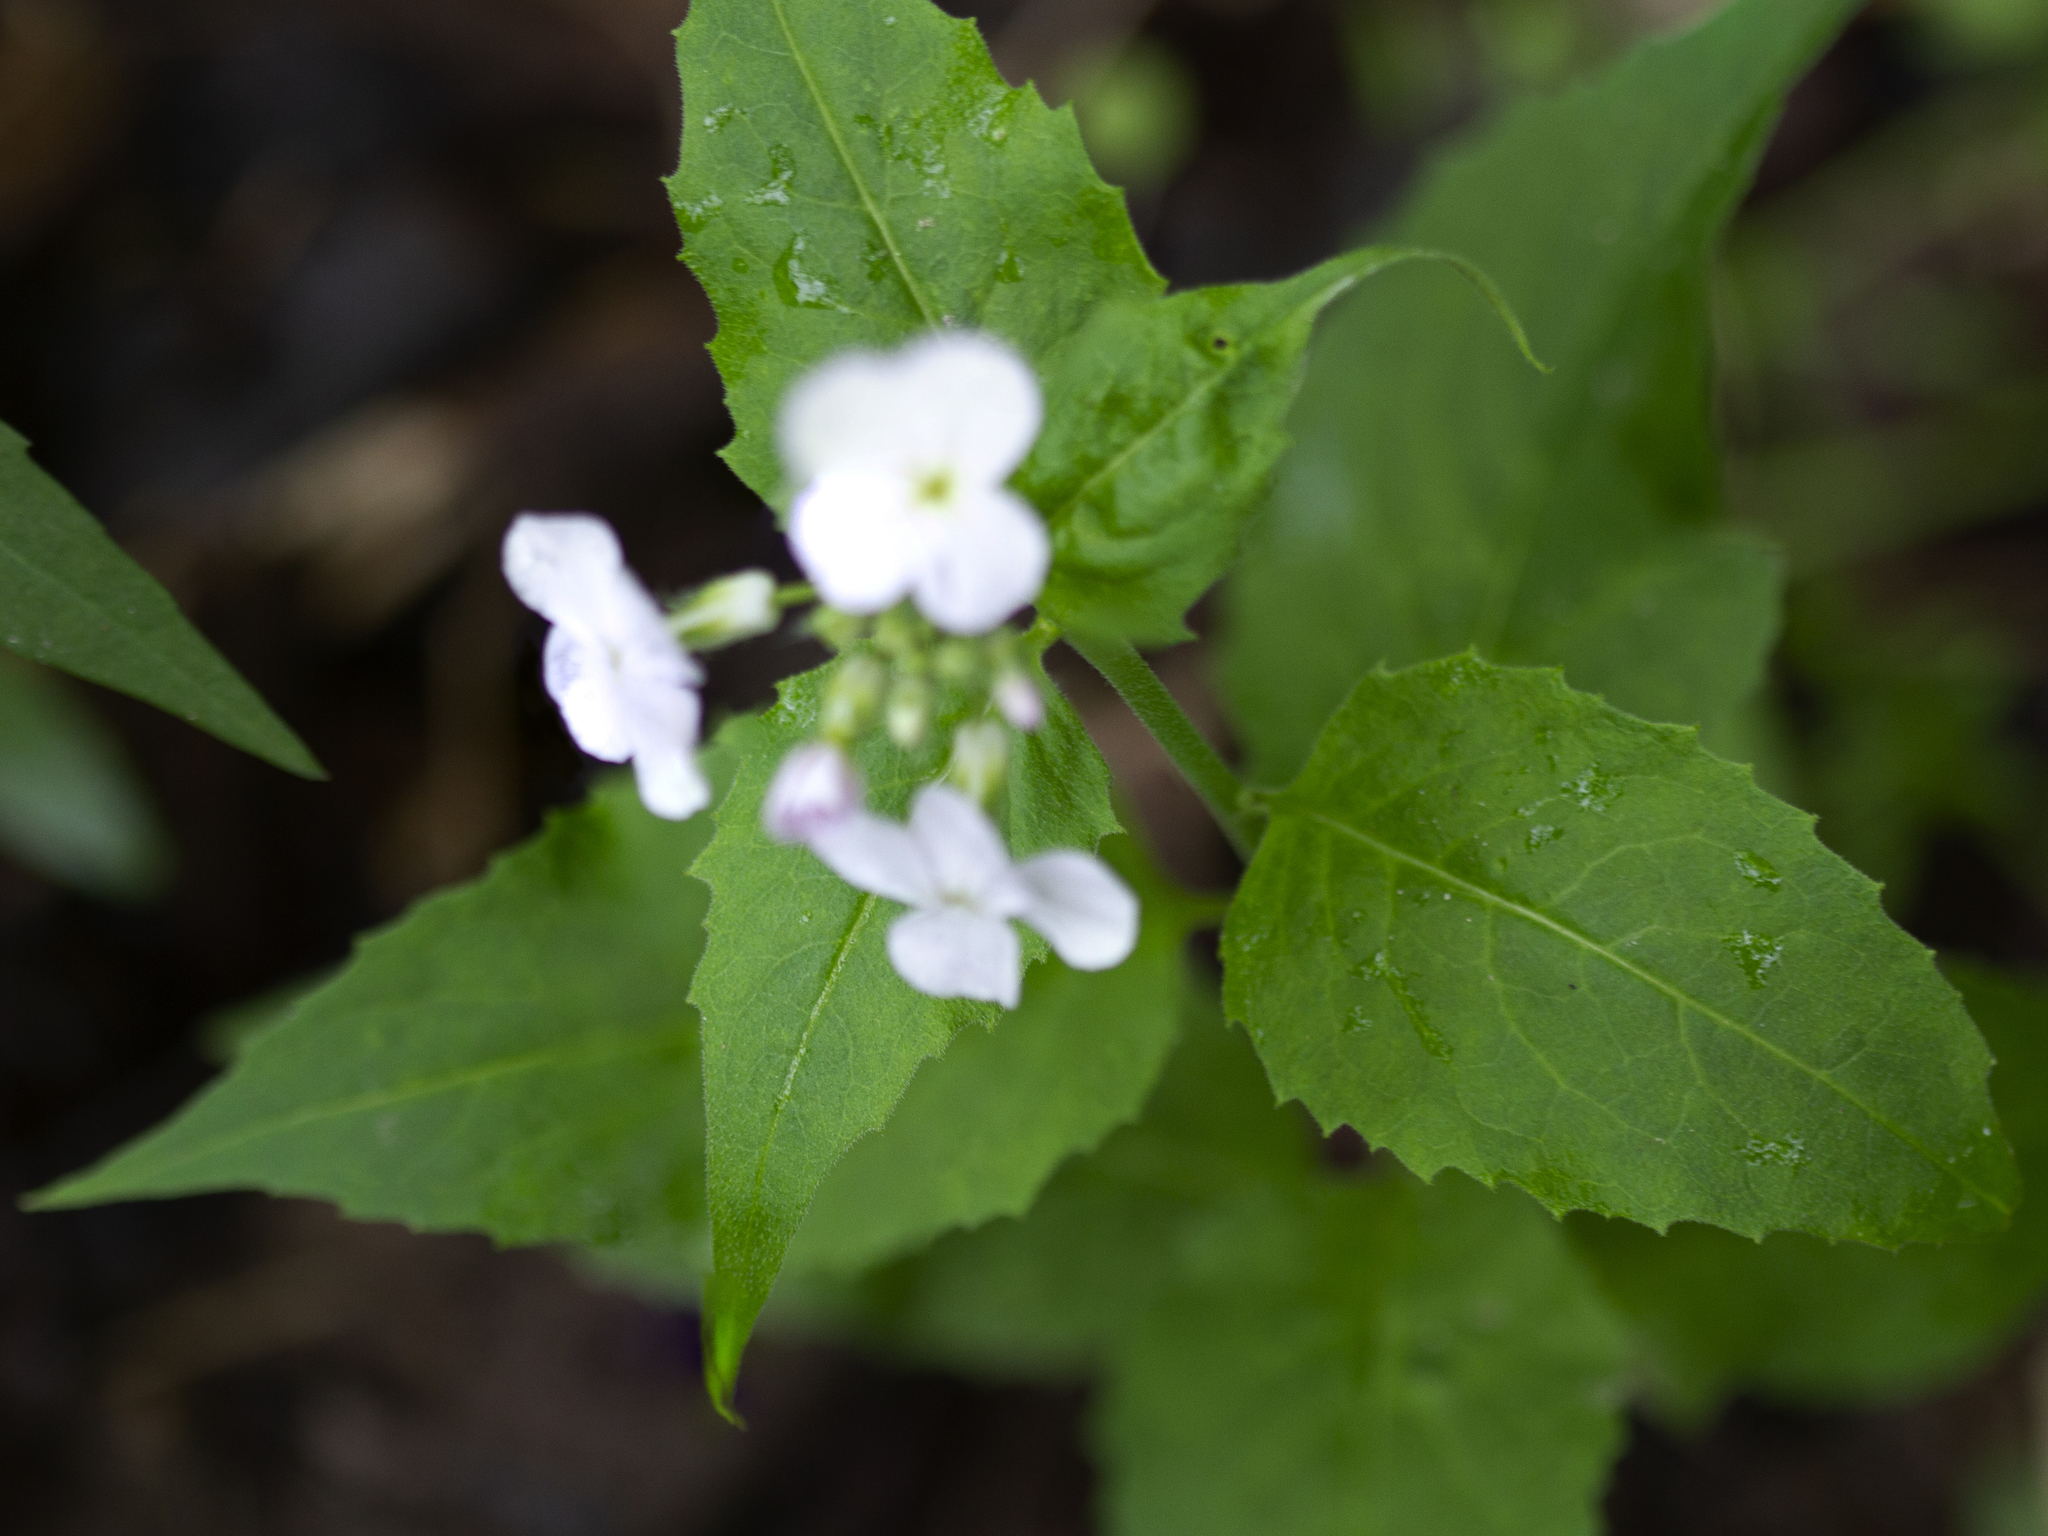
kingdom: Plantae
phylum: Tracheophyta
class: Magnoliopsida
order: Brassicales
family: Brassicaceae
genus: Hesperis
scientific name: Hesperis matronalis
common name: Dame's-violet
